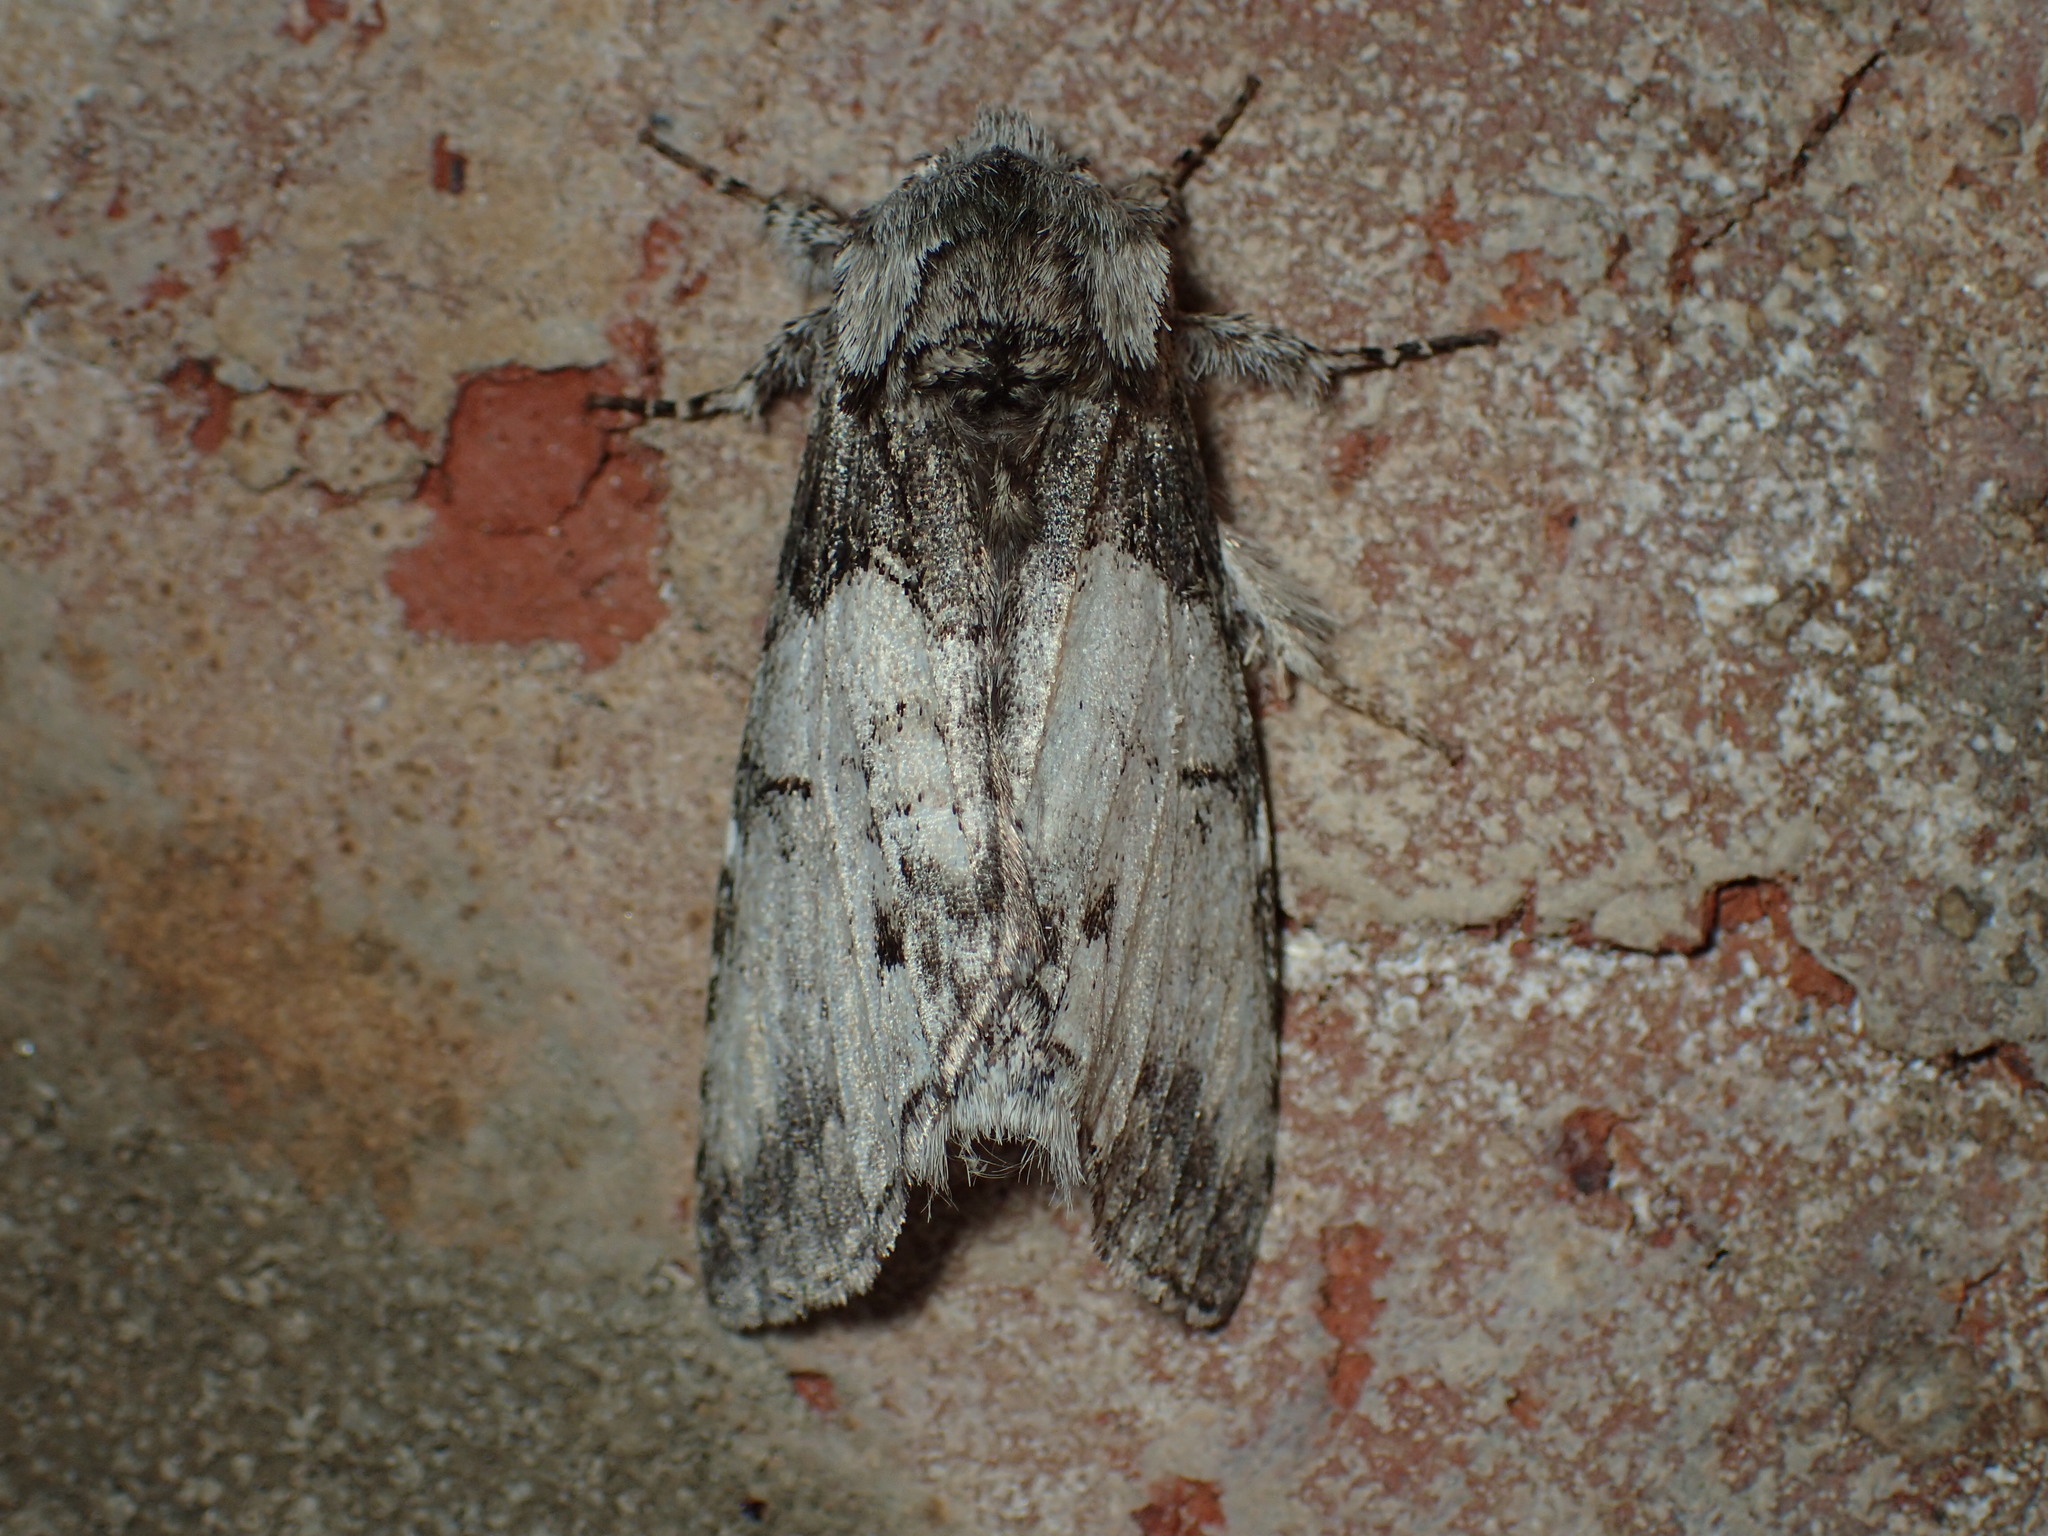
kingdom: Animalia
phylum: Arthropoda
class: Insecta
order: Lepidoptera
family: Notodontidae
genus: Macrurocampa
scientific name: Macrurocampa marthesia
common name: Mottled prominent
